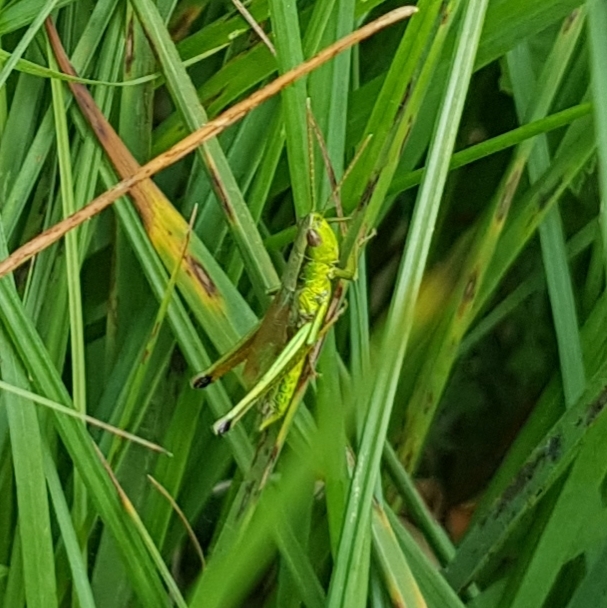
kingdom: Animalia
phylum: Arthropoda
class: Insecta
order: Orthoptera
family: Acrididae
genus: Chrysochraon
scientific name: Chrysochraon dispar
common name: Large gold grasshopper
